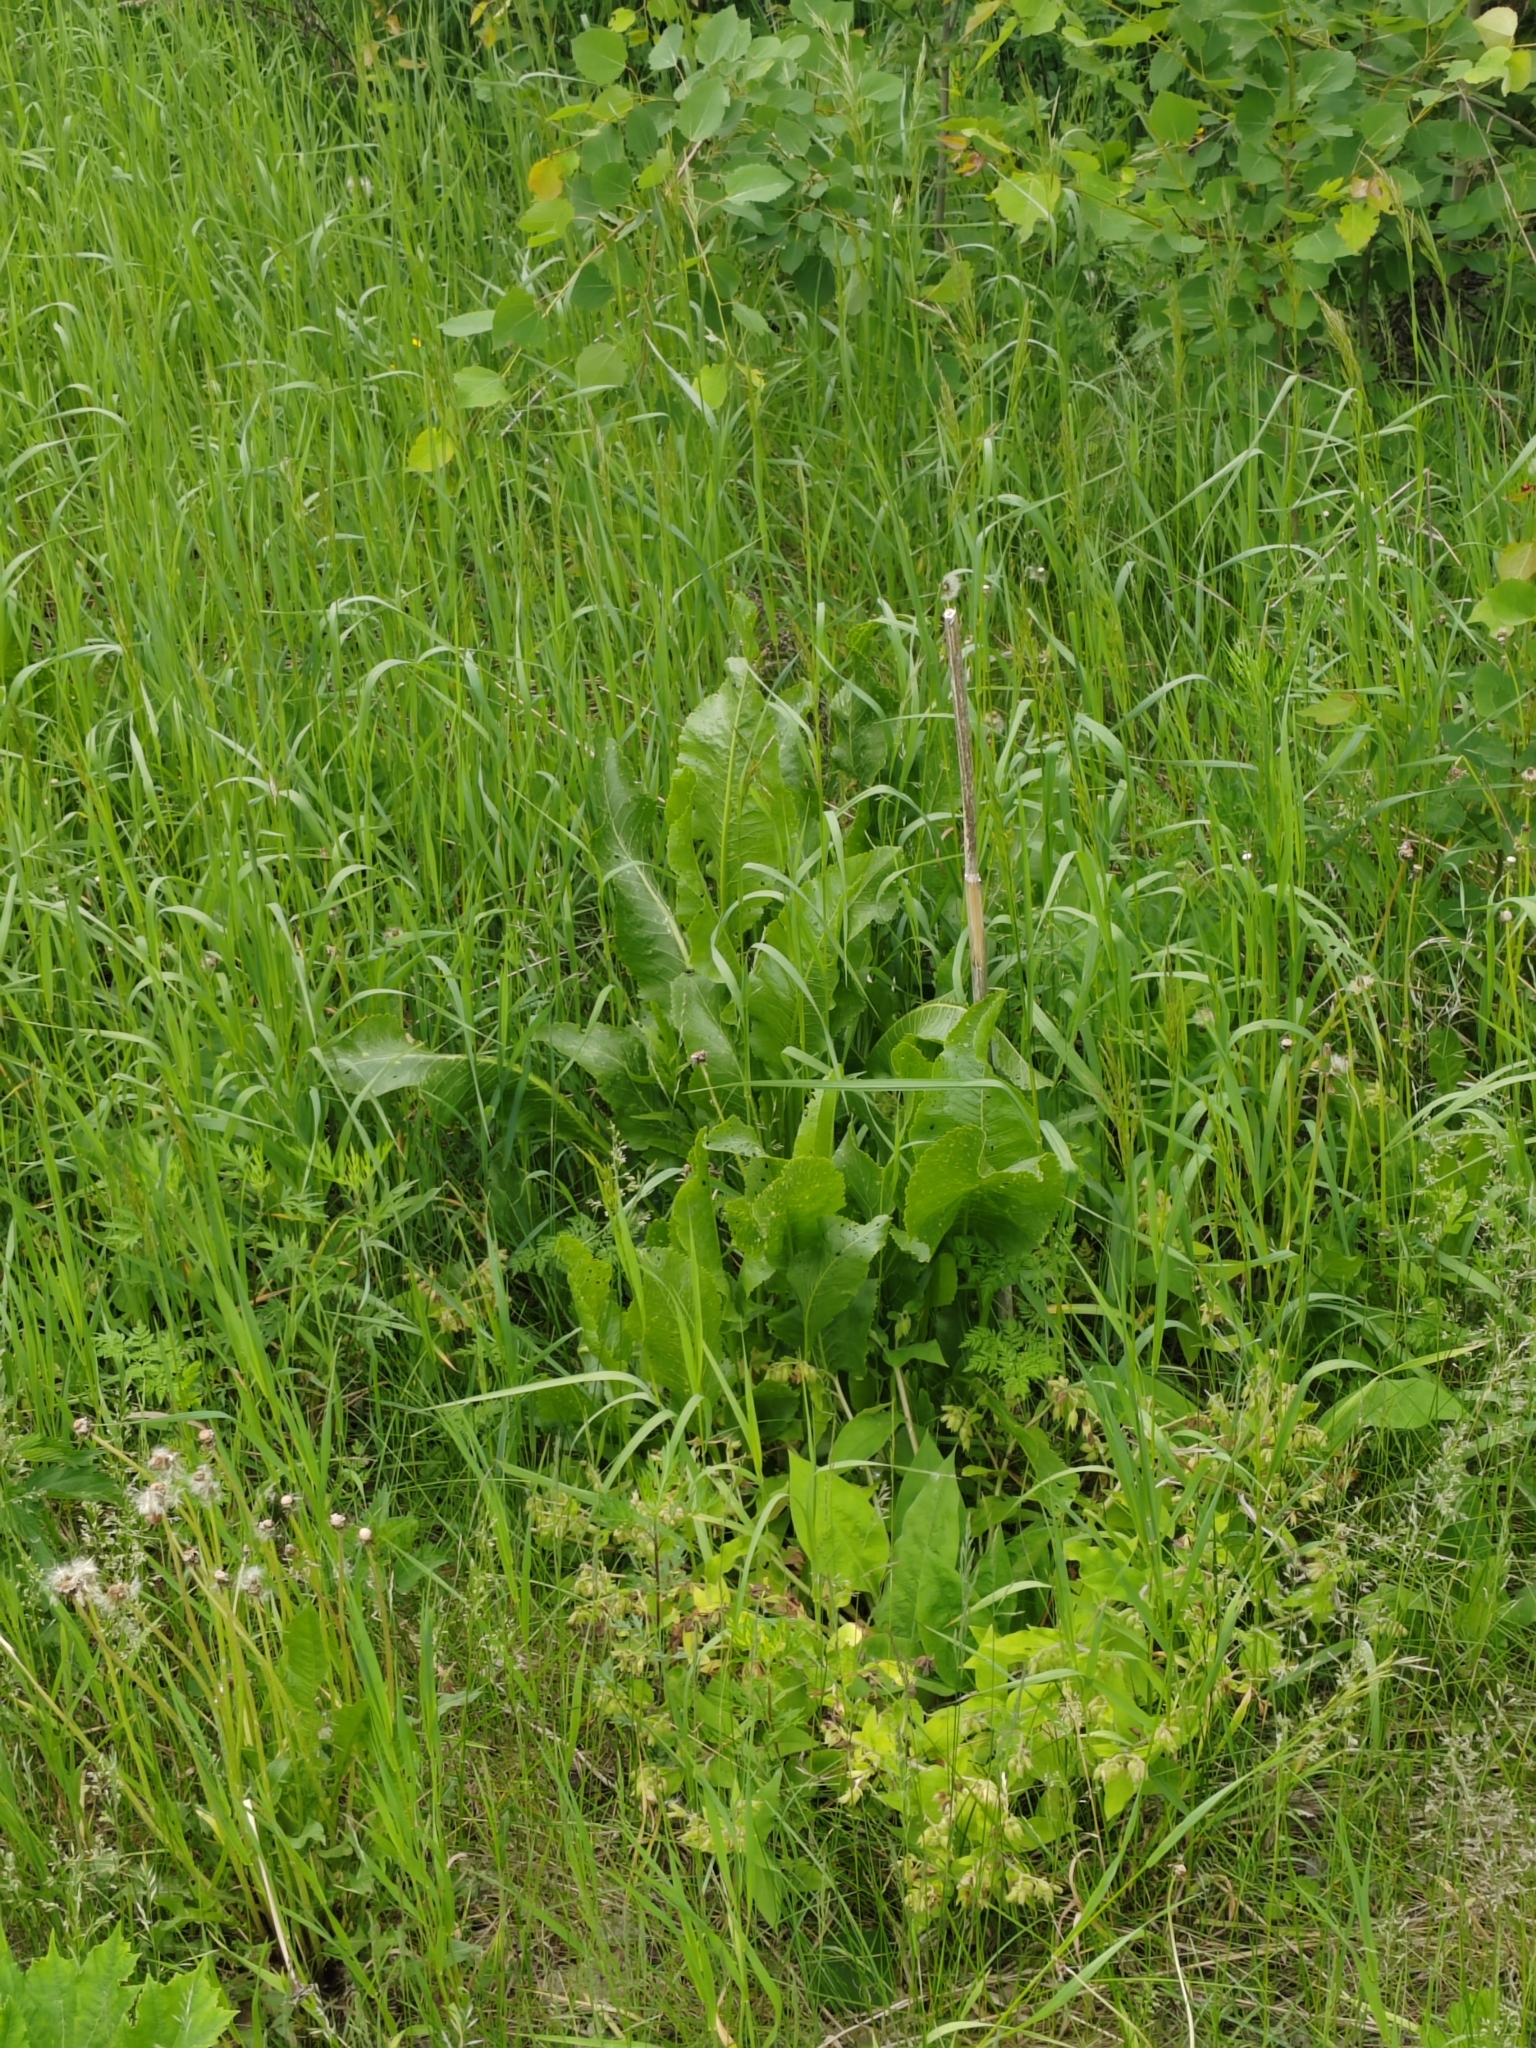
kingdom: Plantae
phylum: Tracheophyta
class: Magnoliopsida
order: Brassicales
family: Brassicaceae
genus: Armoracia
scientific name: Armoracia rusticana
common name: Horseradish
